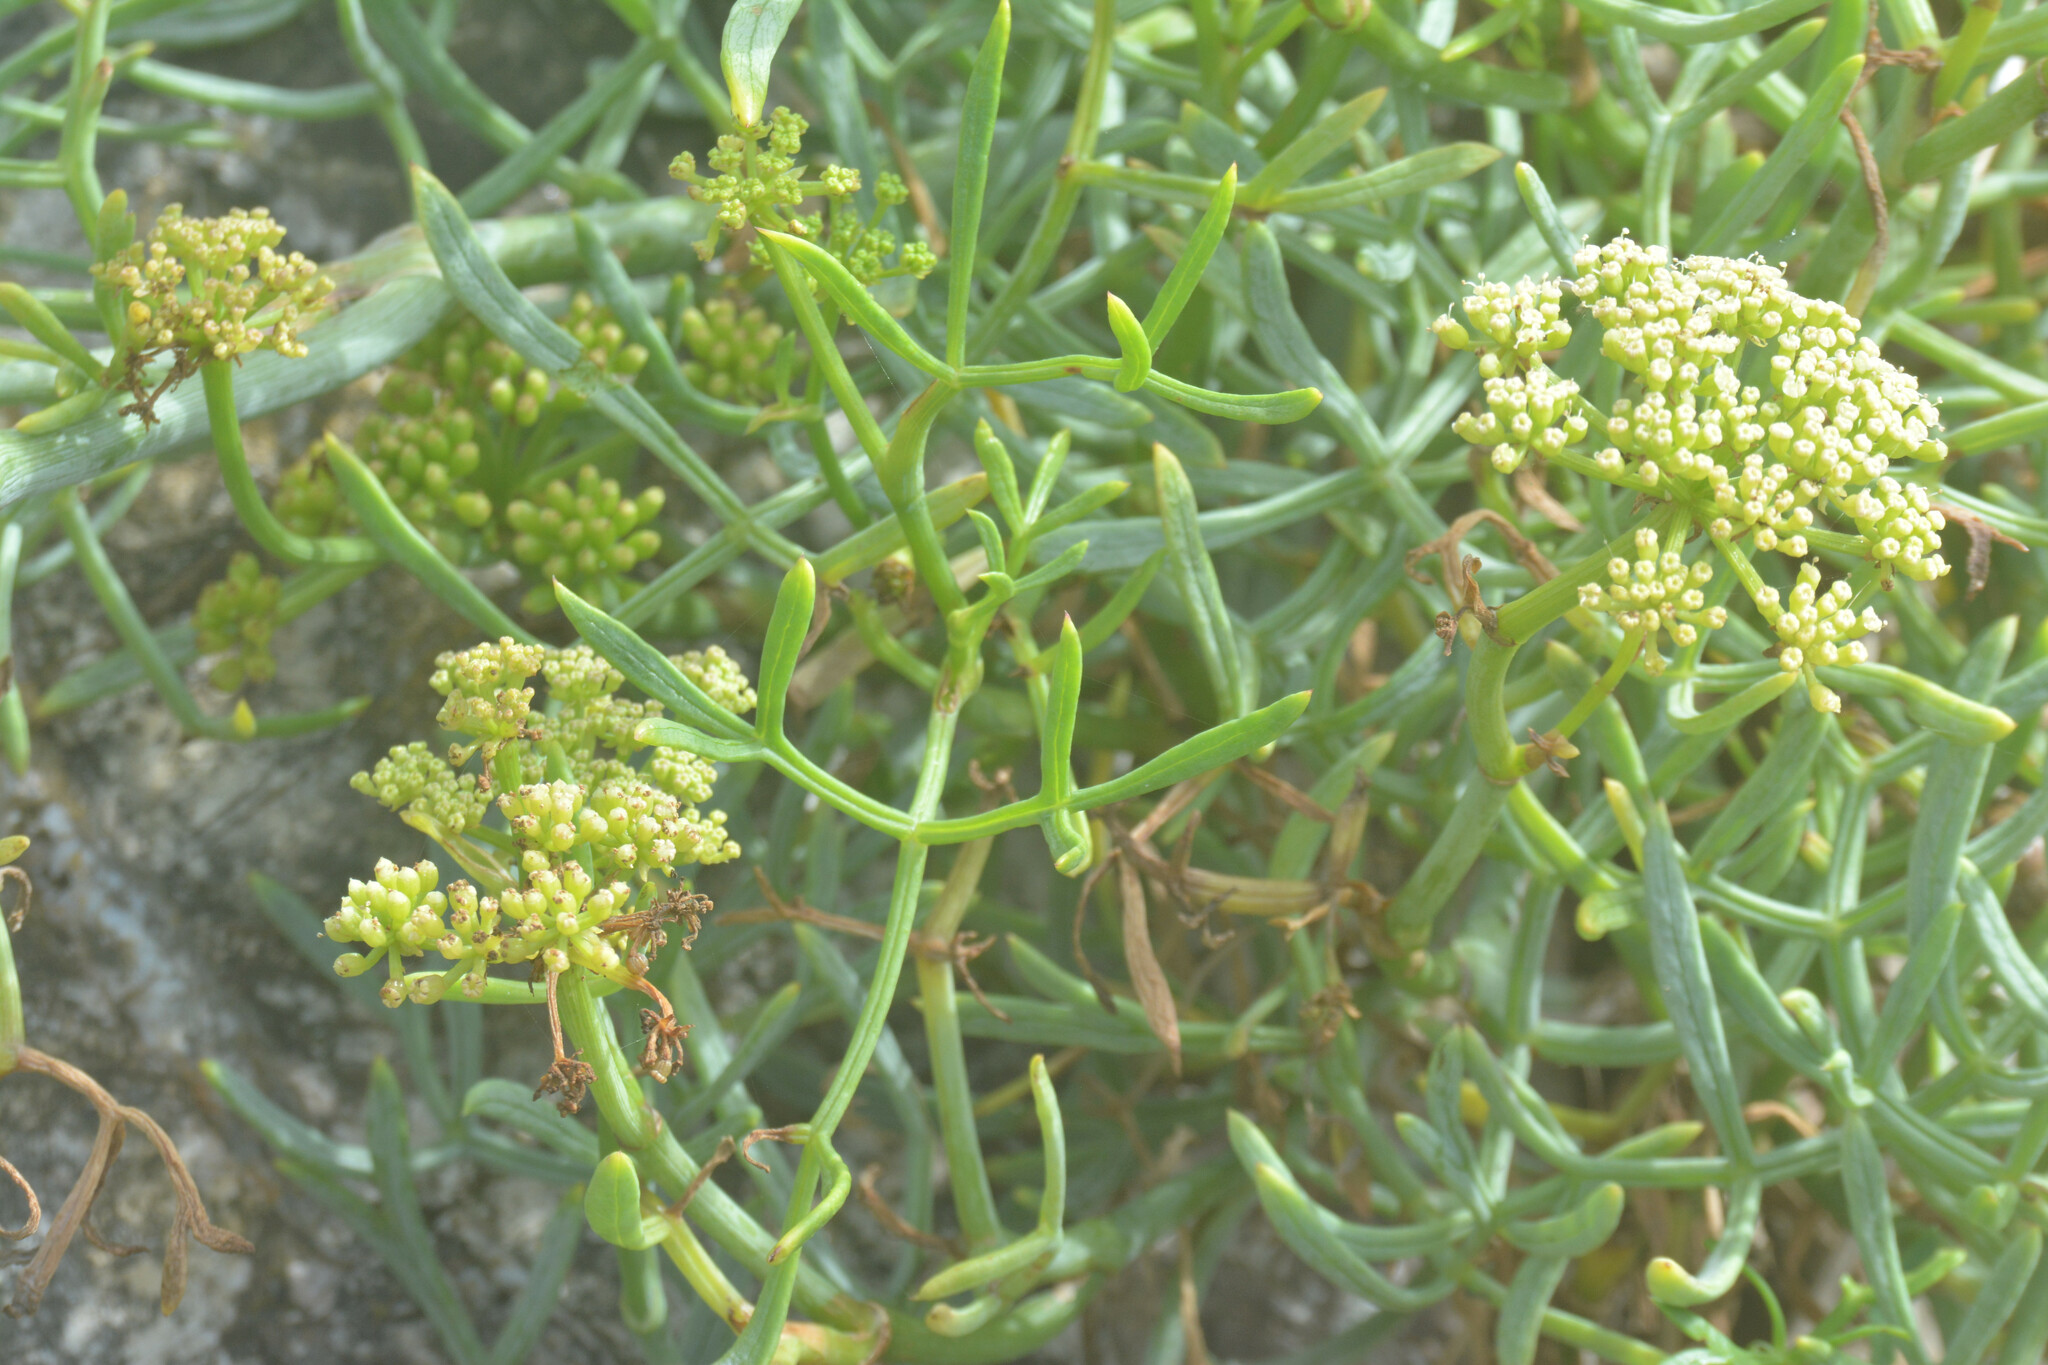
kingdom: Plantae
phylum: Tracheophyta
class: Magnoliopsida
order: Apiales
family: Apiaceae
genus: Crithmum
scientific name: Crithmum maritimum
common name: Rock samphire
